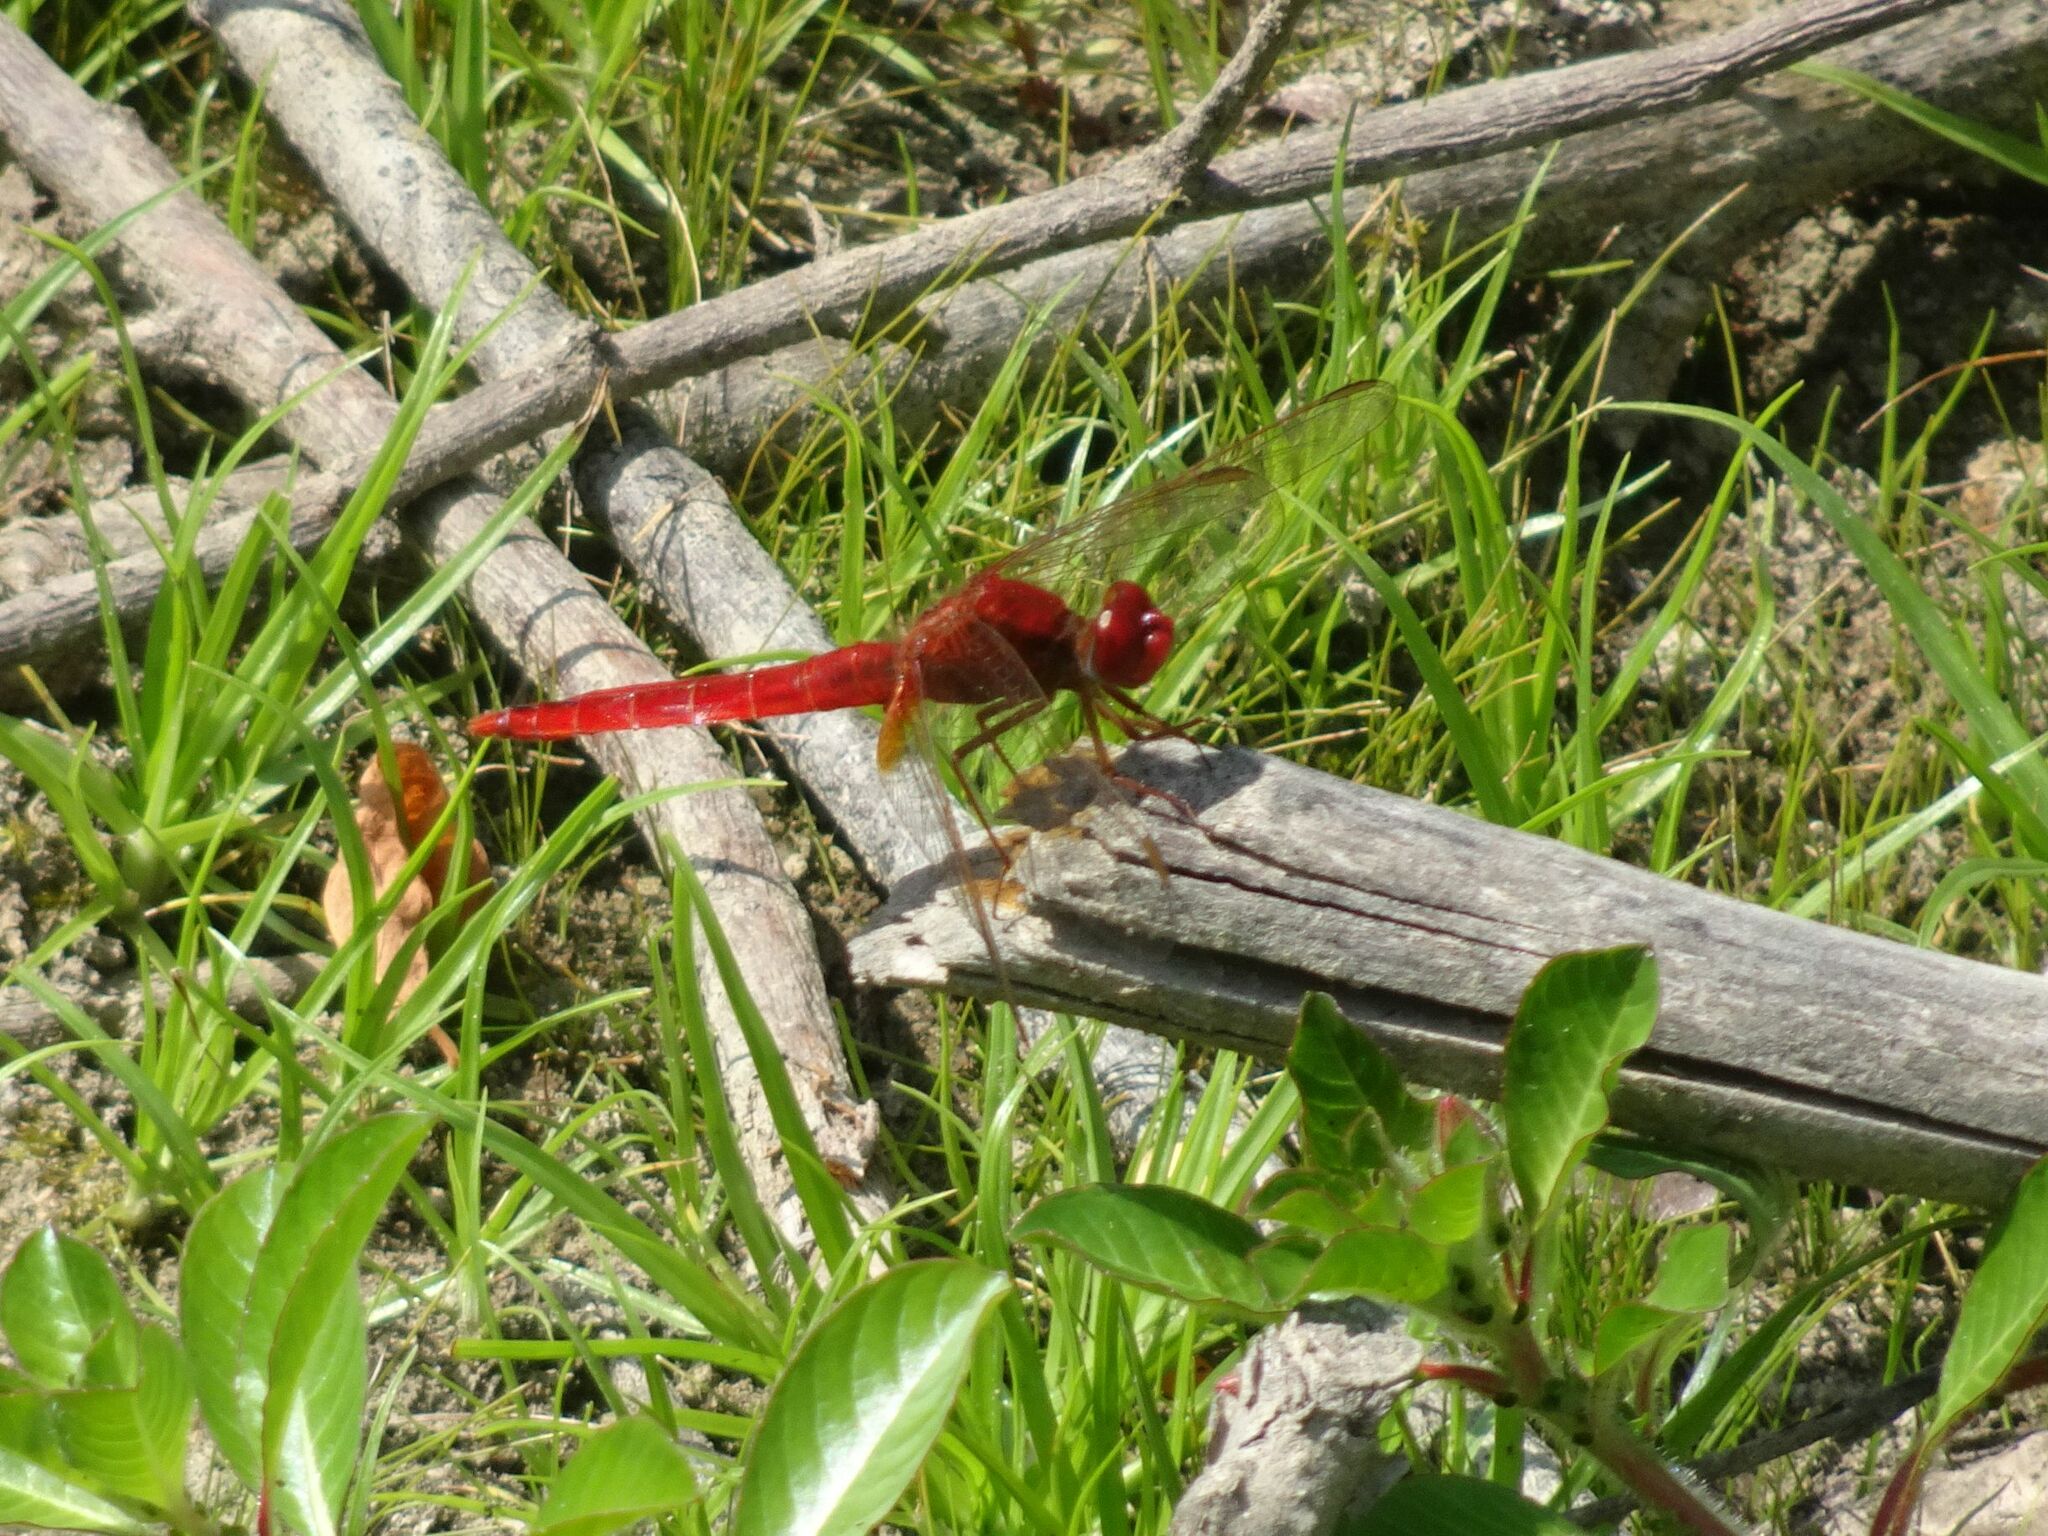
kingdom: Animalia
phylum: Arthropoda
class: Insecta
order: Odonata
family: Libellulidae
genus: Crocothemis
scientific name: Crocothemis erythraea
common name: Scarlet dragonfly
